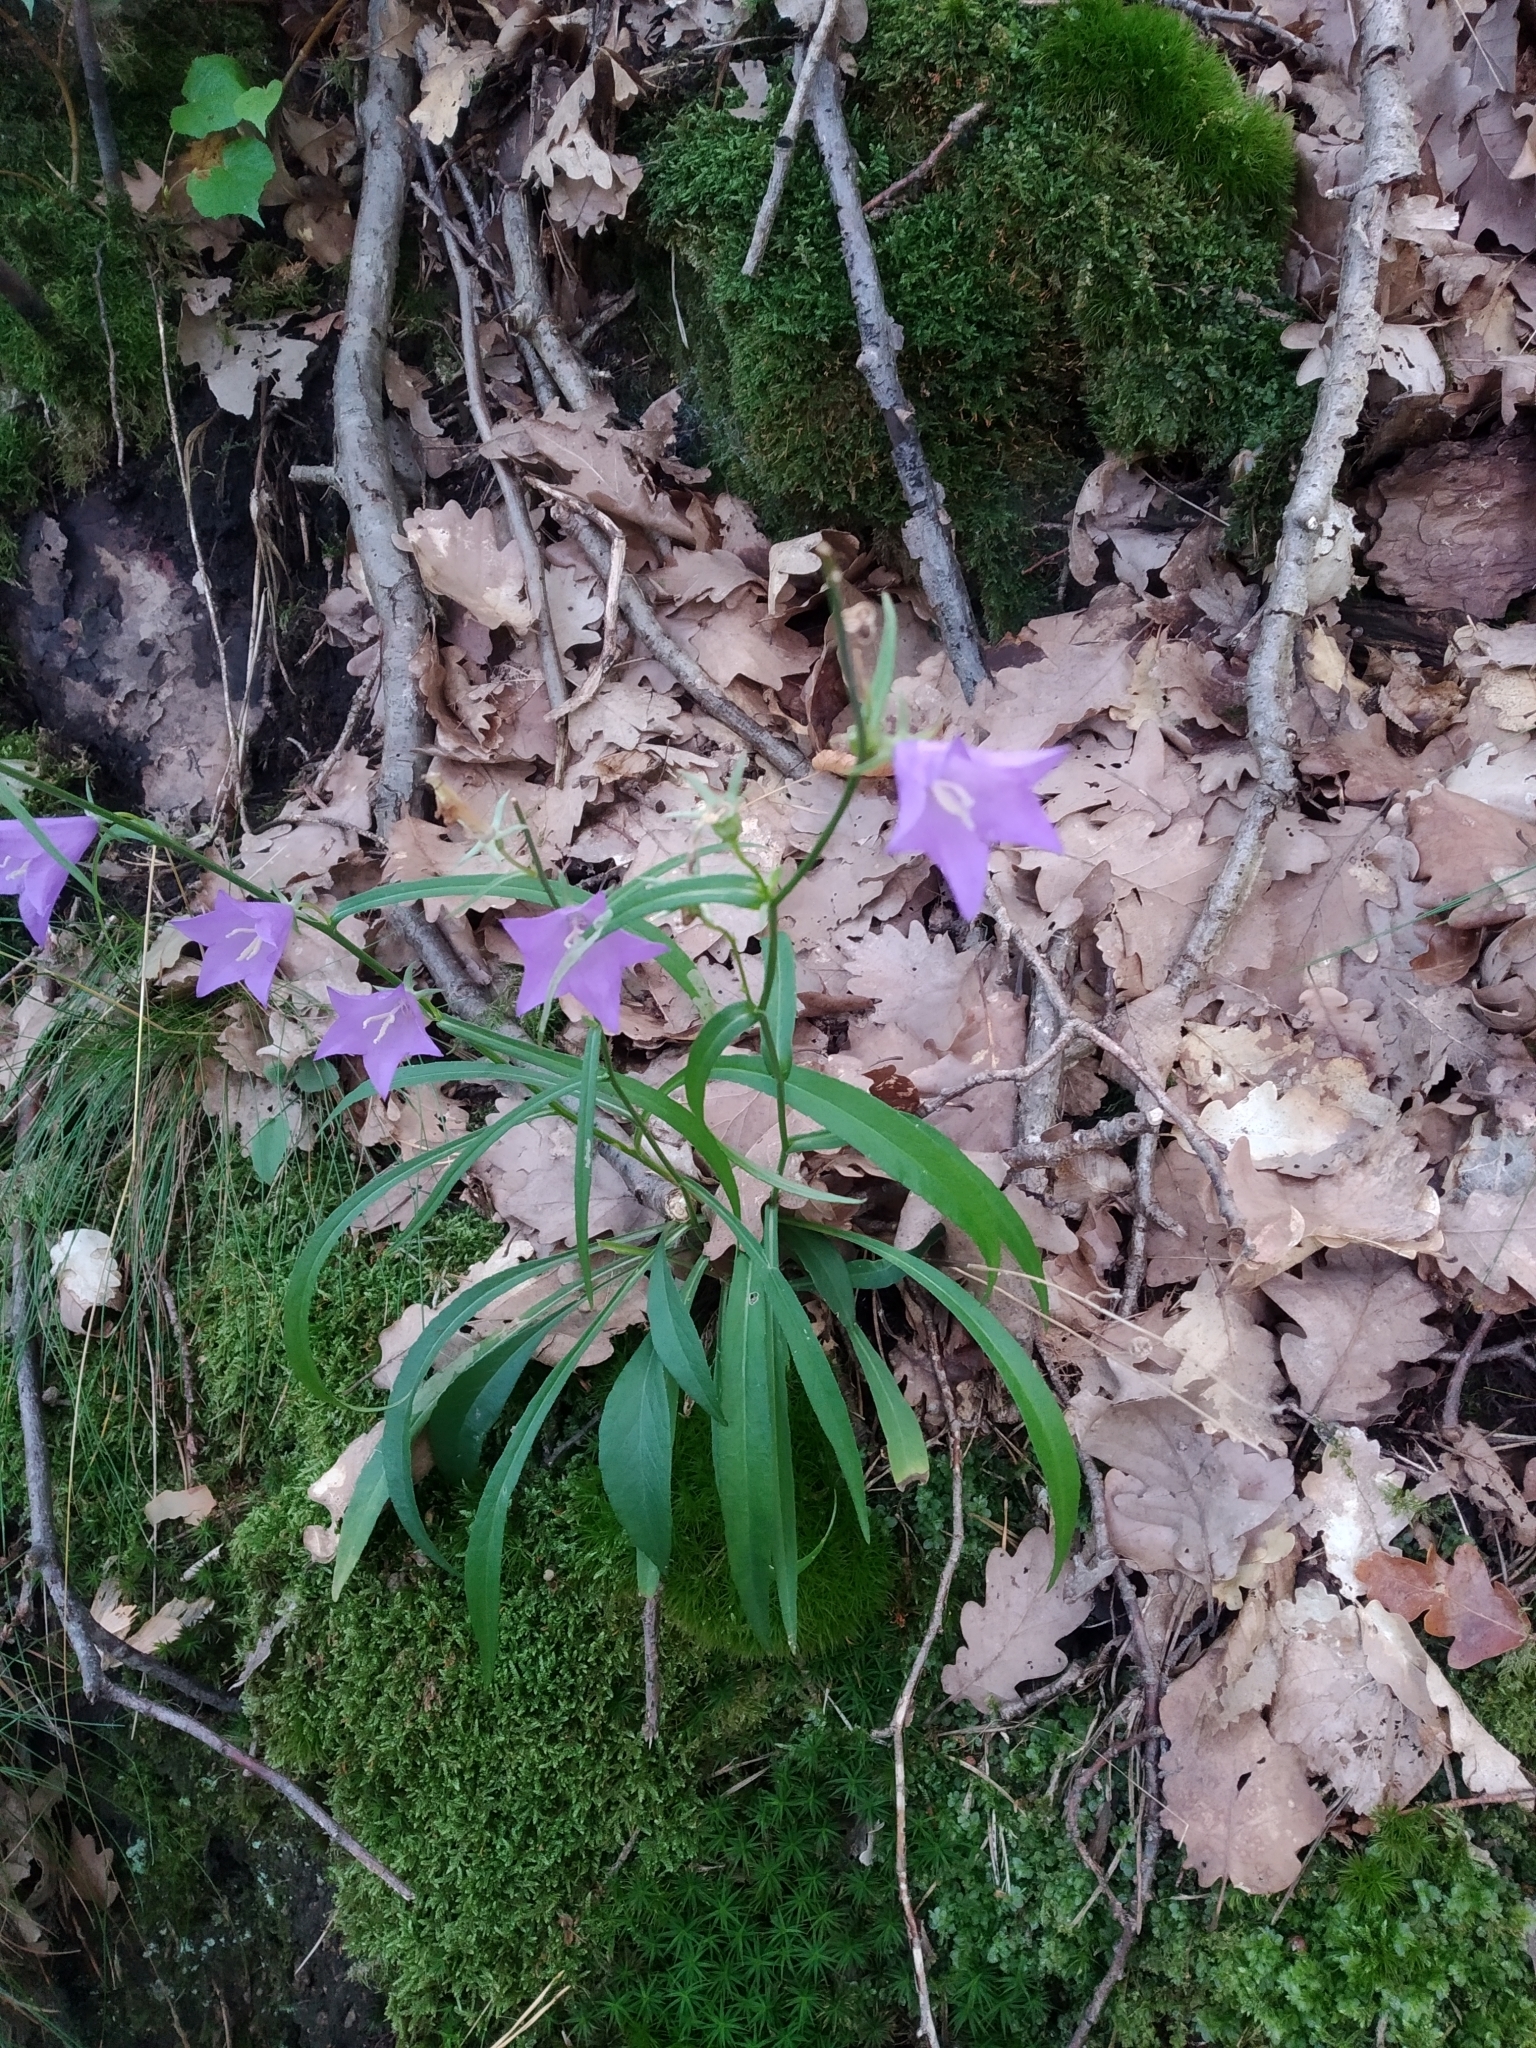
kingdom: Plantae
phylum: Tracheophyta
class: Magnoliopsida
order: Asterales
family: Campanulaceae
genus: Campanula
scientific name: Campanula persicifolia
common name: Peach-leaved bellflower
